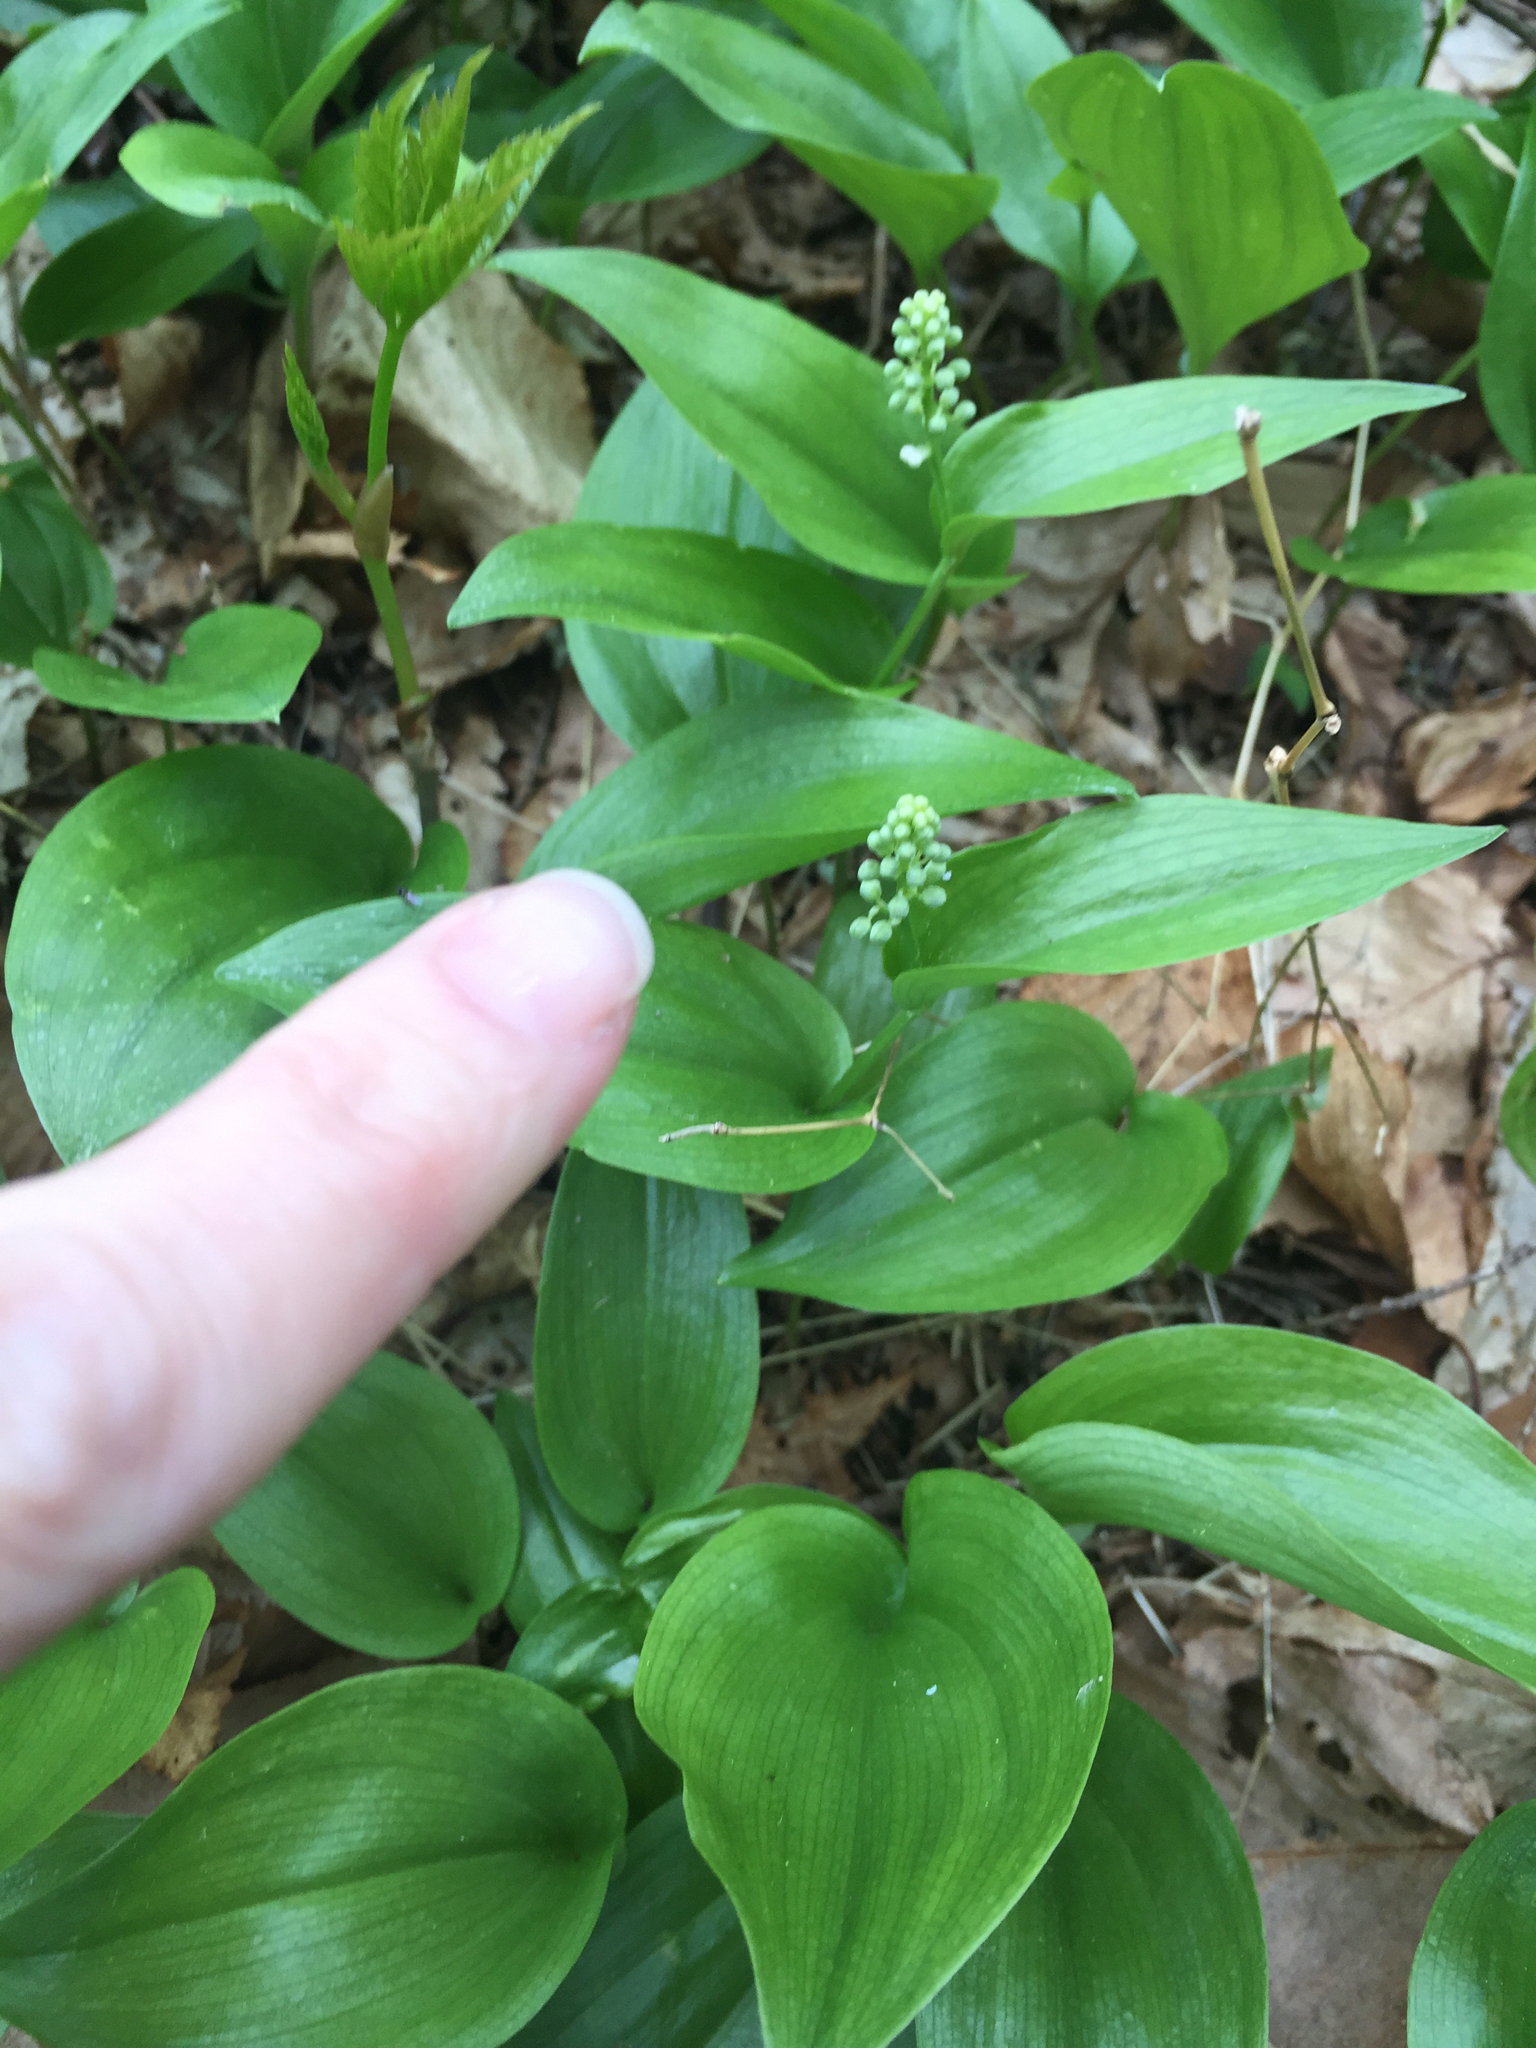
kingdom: Plantae
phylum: Tracheophyta
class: Liliopsida
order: Asparagales
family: Asparagaceae
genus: Maianthemum
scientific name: Maianthemum canadense
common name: False lily-of-the-valley
